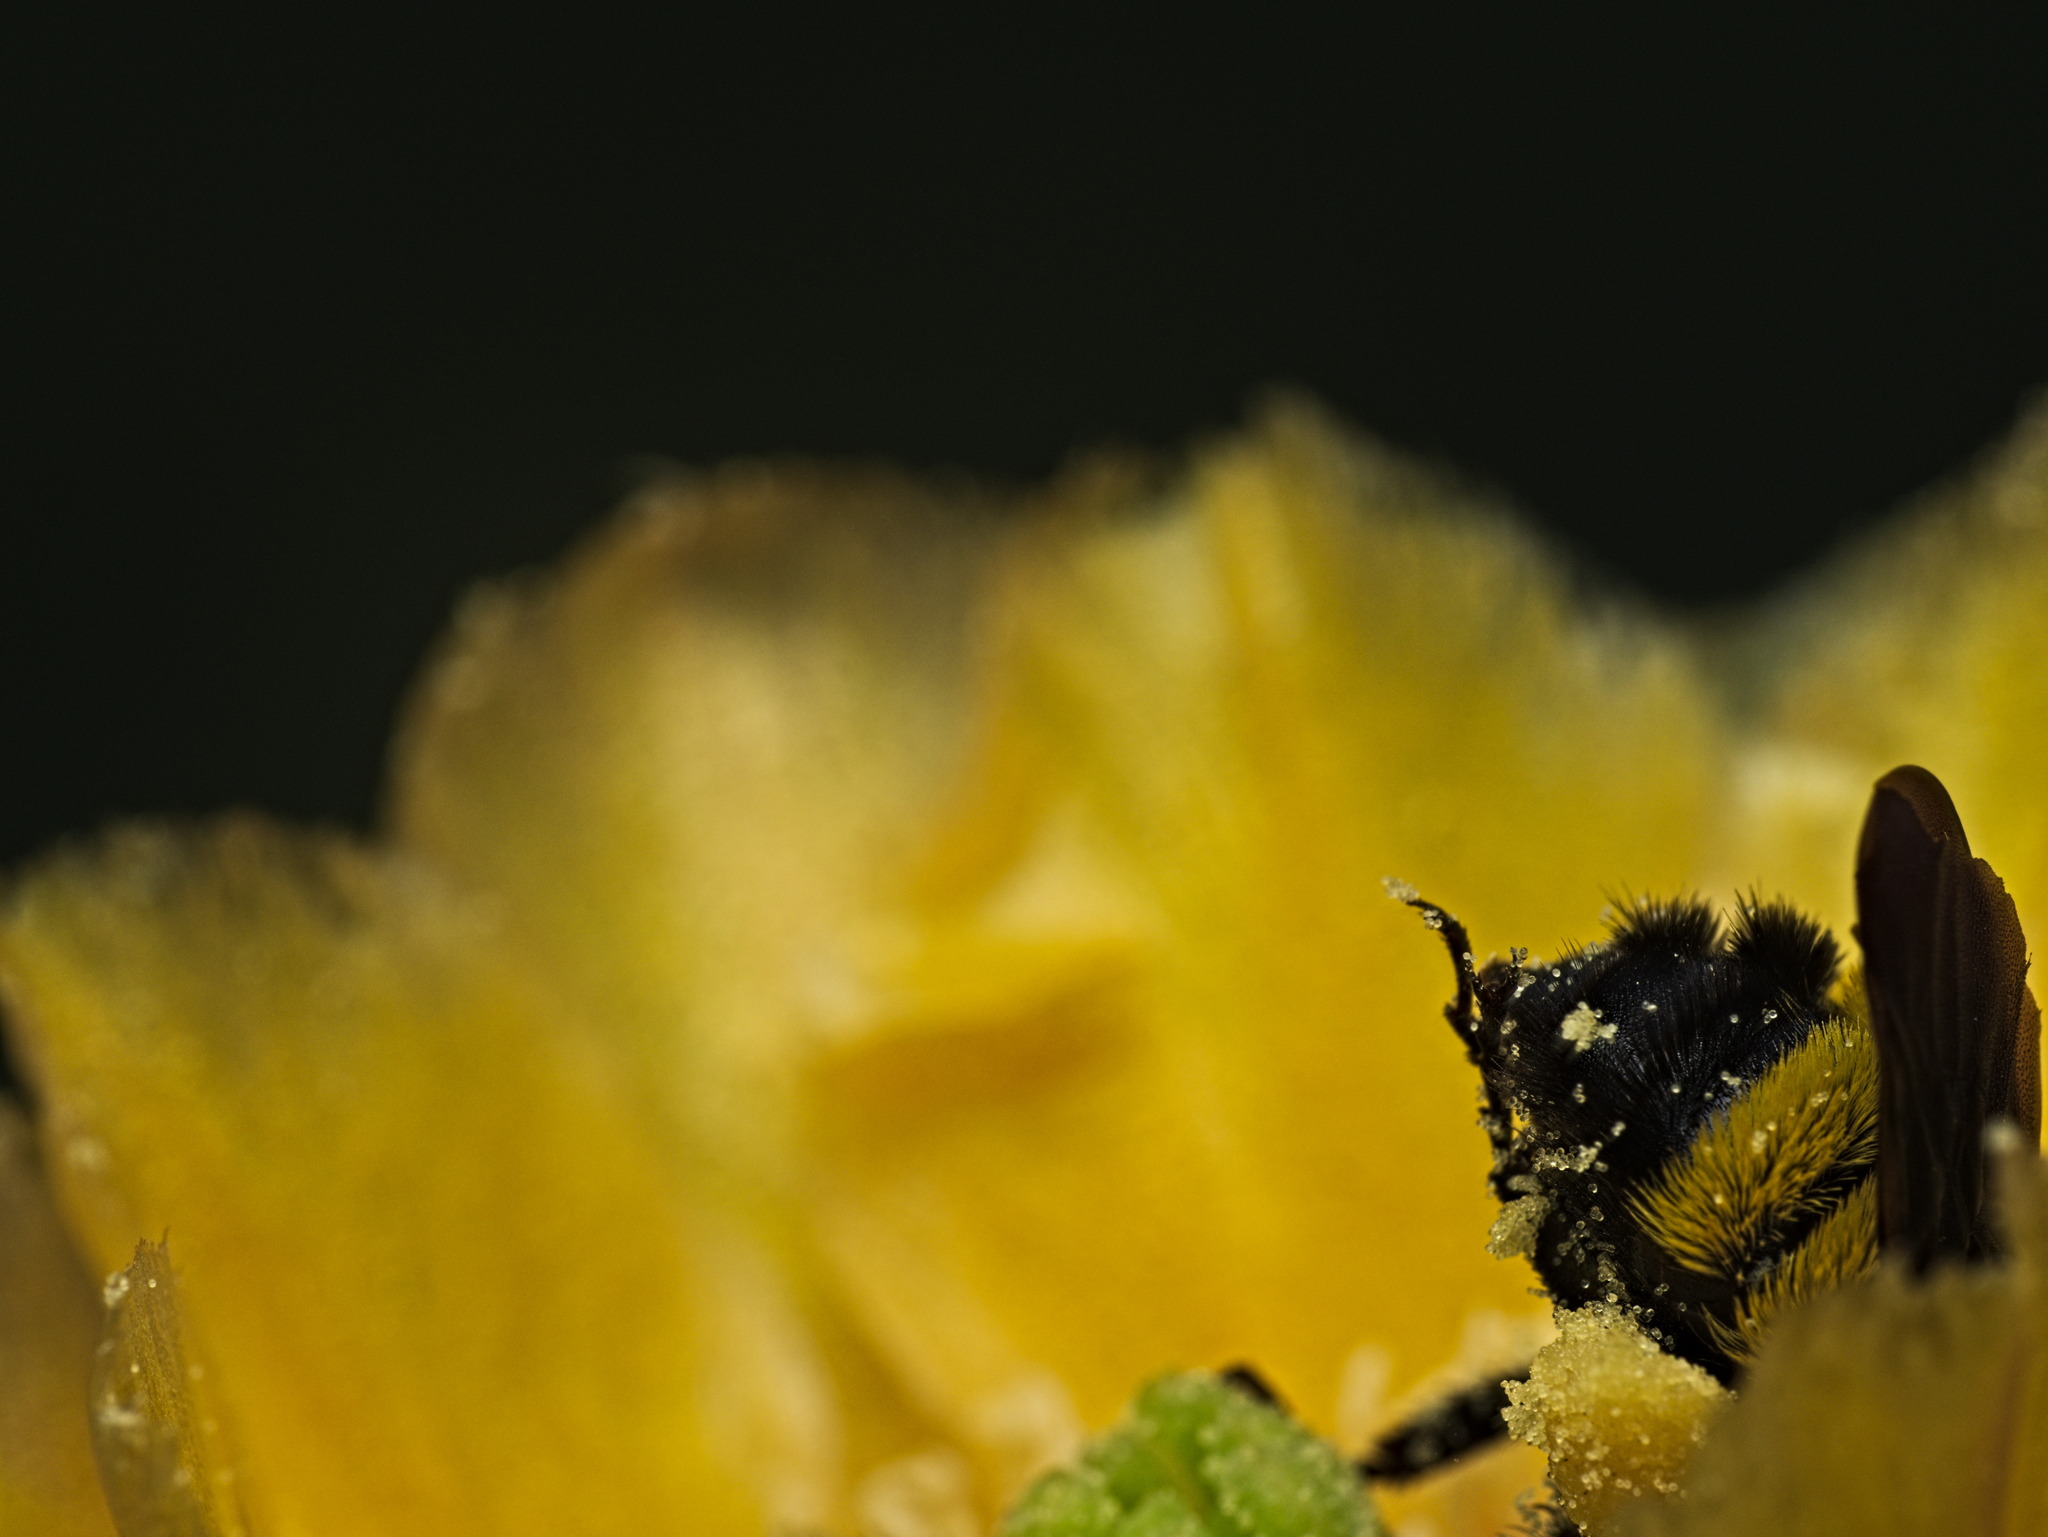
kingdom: Animalia
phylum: Arthropoda
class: Insecta
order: Hymenoptera
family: Apidae
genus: Bombus
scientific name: Bombus sonorus
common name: Sonoran bumble bee
